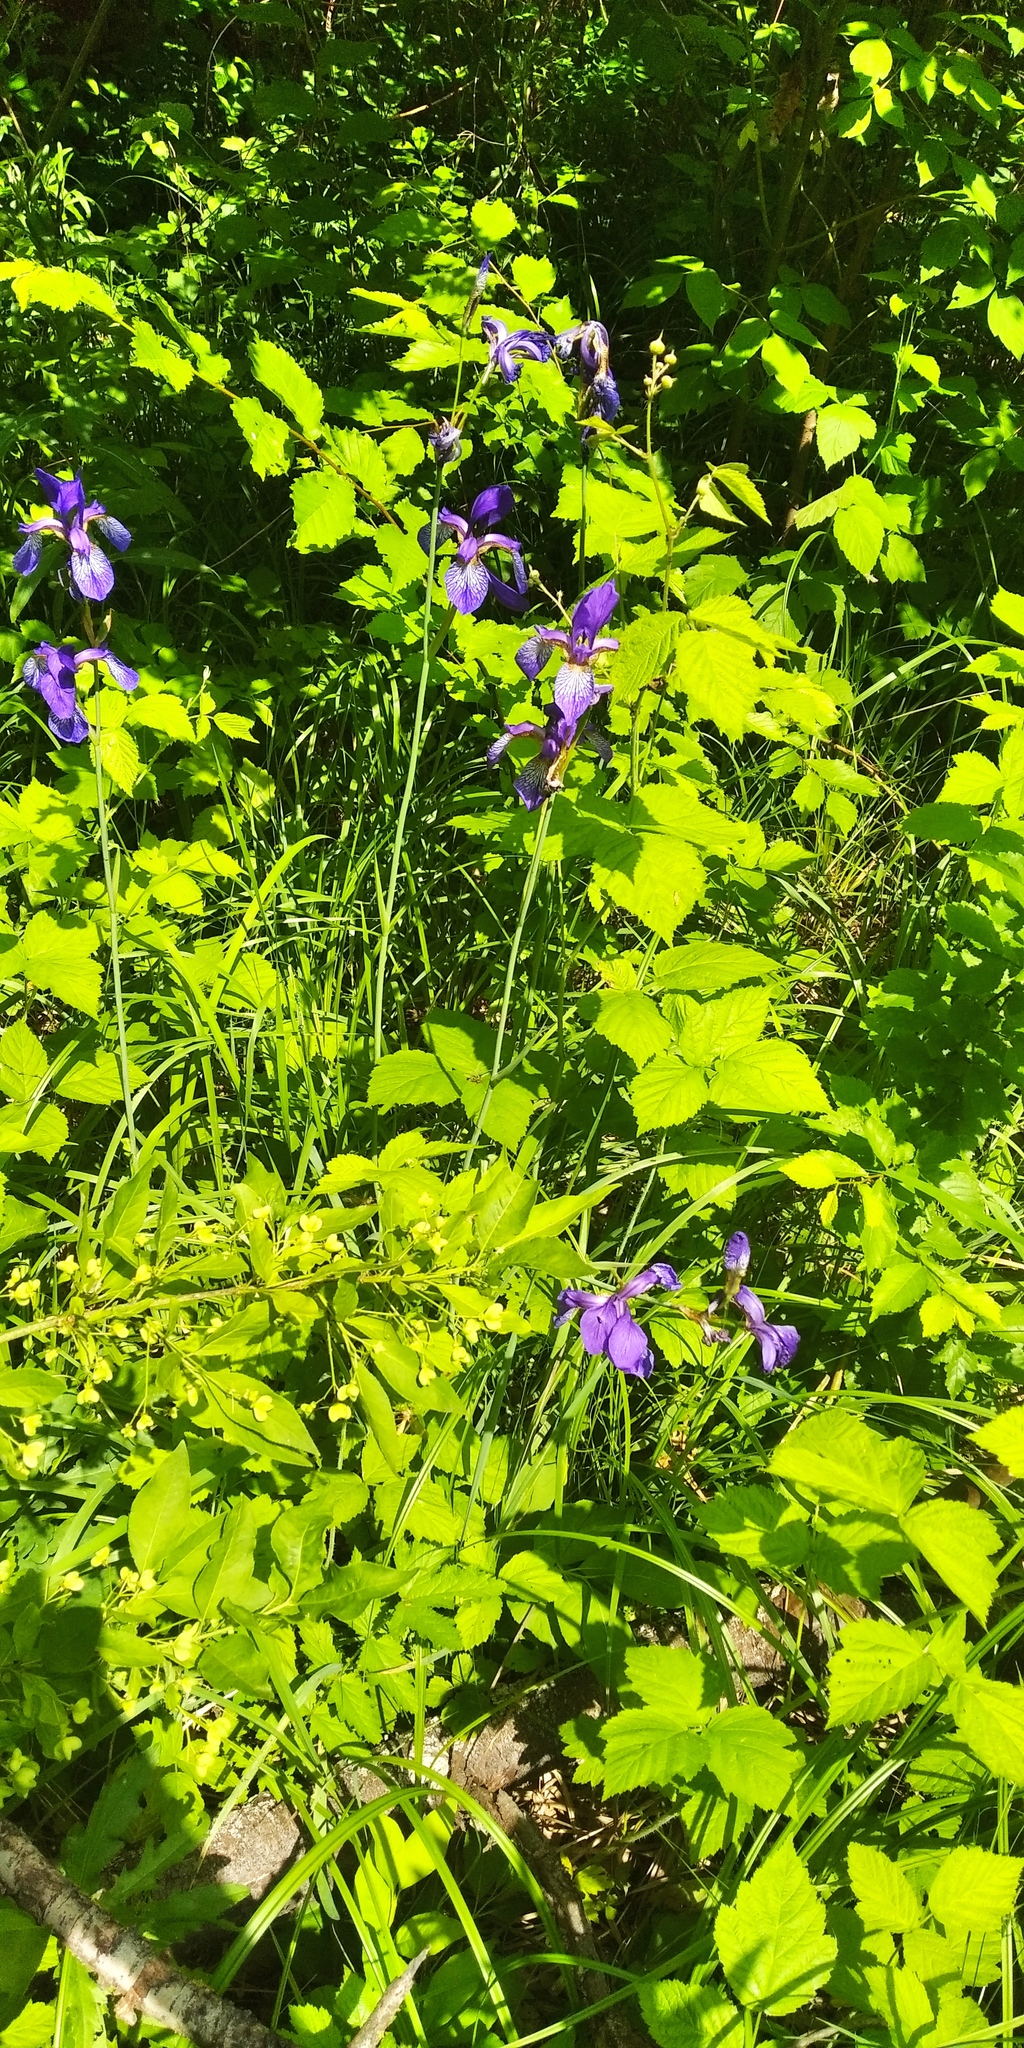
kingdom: Plantae
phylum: Tracheophyta
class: Liliopsida
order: Asparagales
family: Iridaceae
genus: Iris
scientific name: Iris sibirica
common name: Siberian iris
